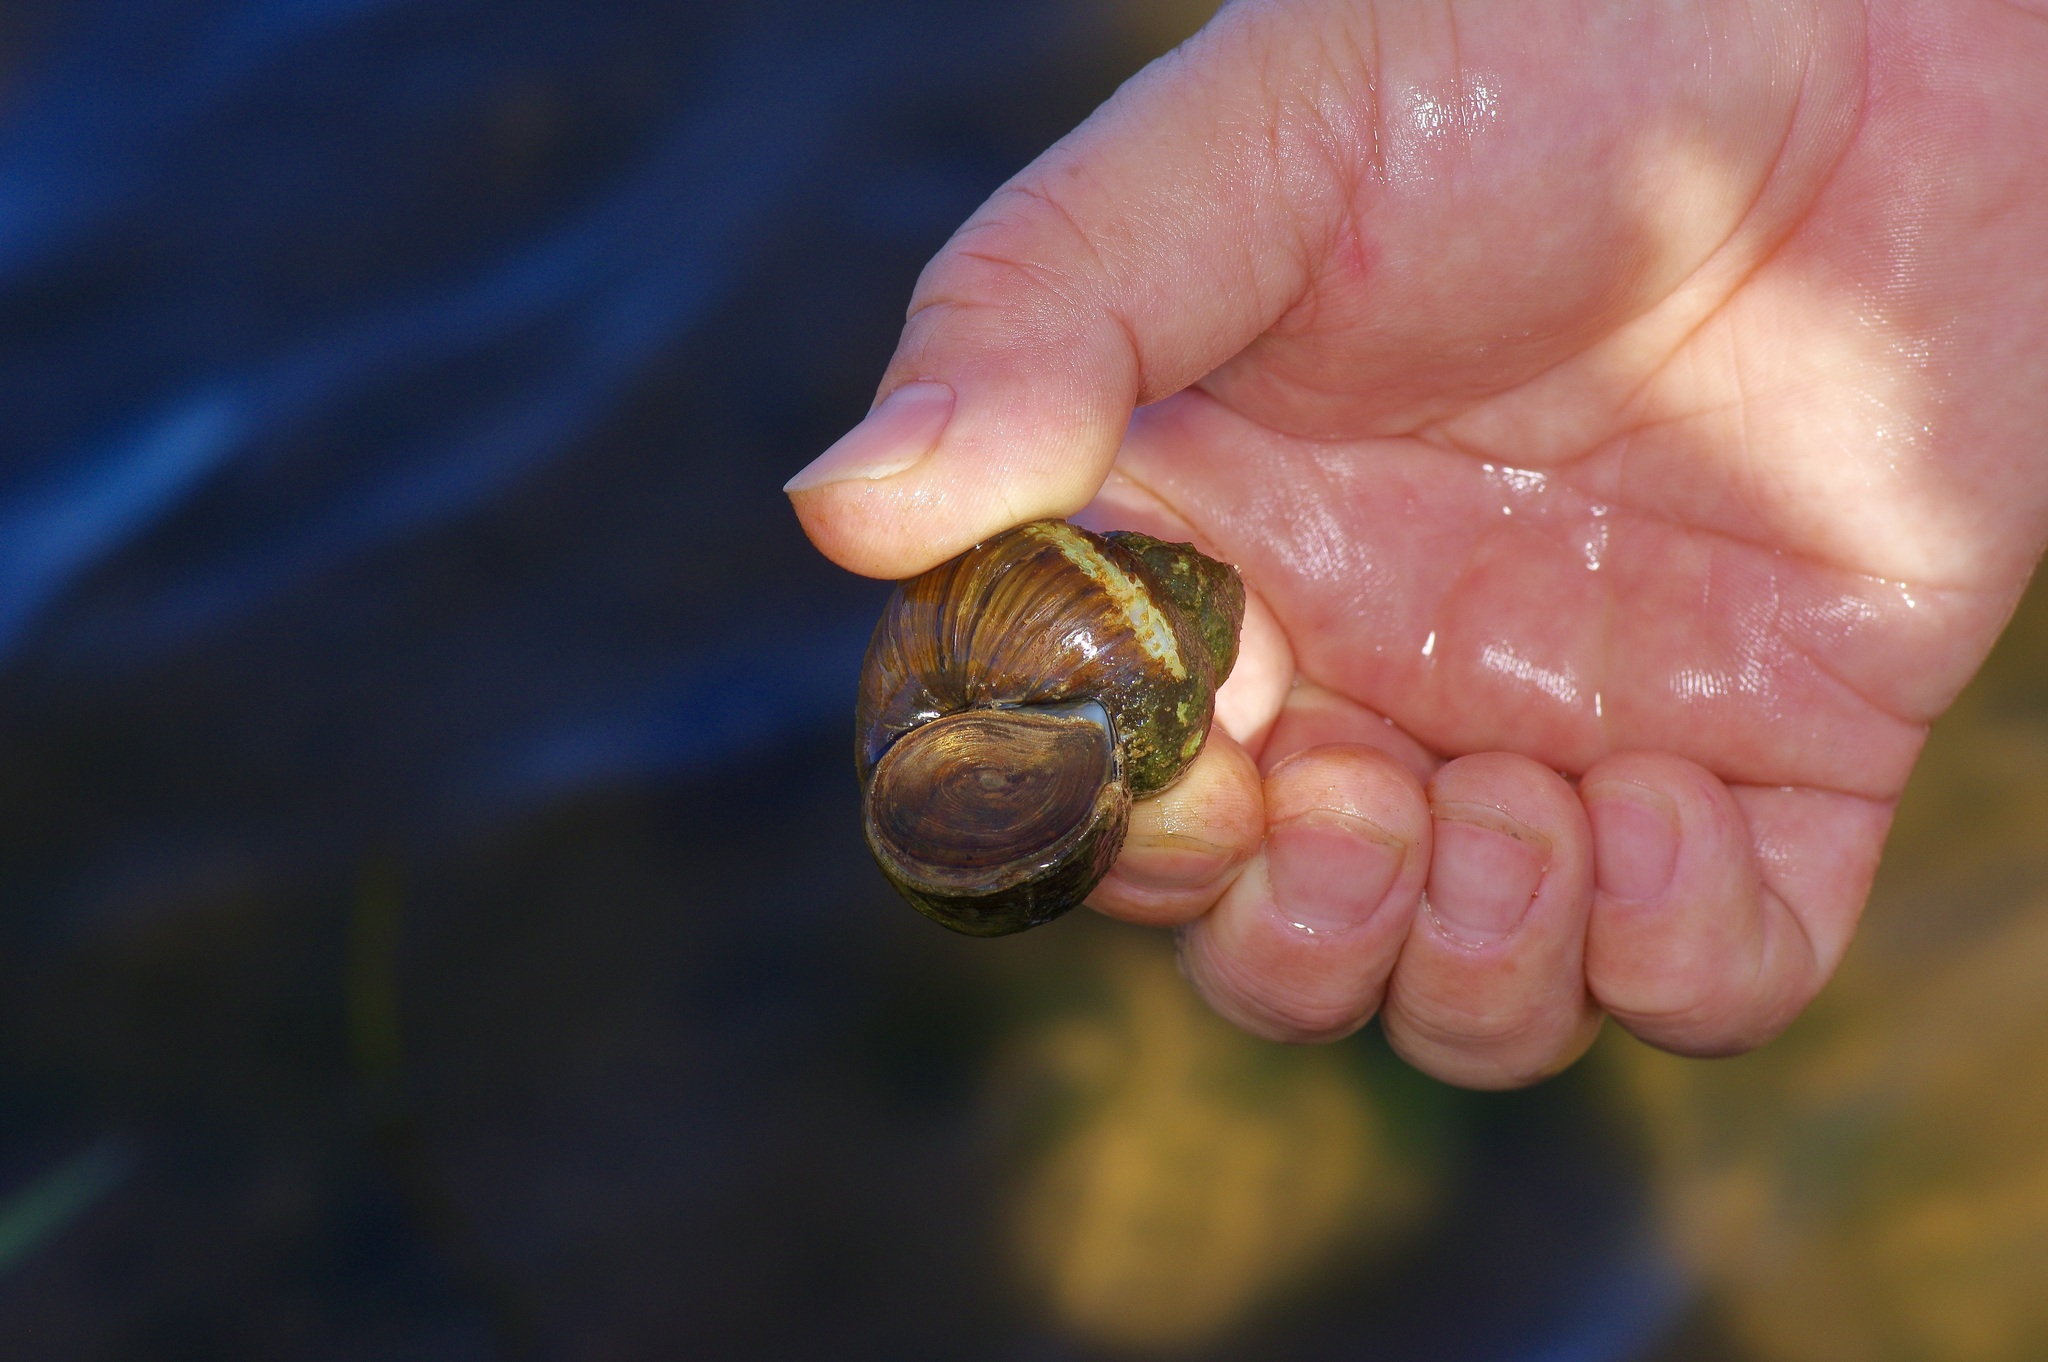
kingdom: Animalia
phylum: Mollusca
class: Gastropoda
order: Architaenioglossa
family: Viviparidae
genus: Cipangopaludina
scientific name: Cipangopaludina chinensis
